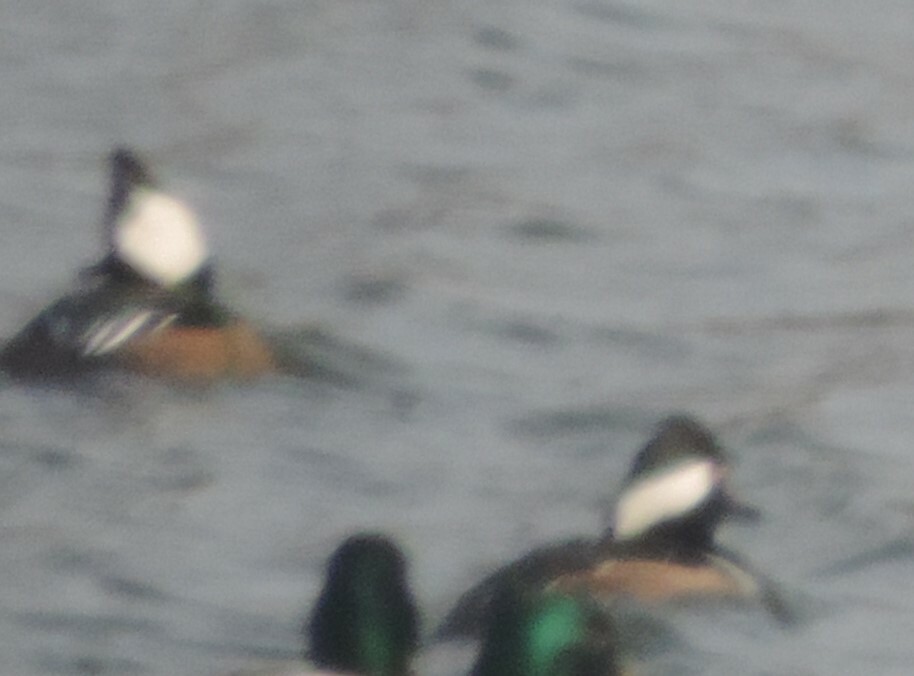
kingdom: Animalia
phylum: Chordata
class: Aves
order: Anseriformes
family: Anatidae
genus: Lophodytes
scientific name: Lophodytes cucullatus
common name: Hooded merganser
